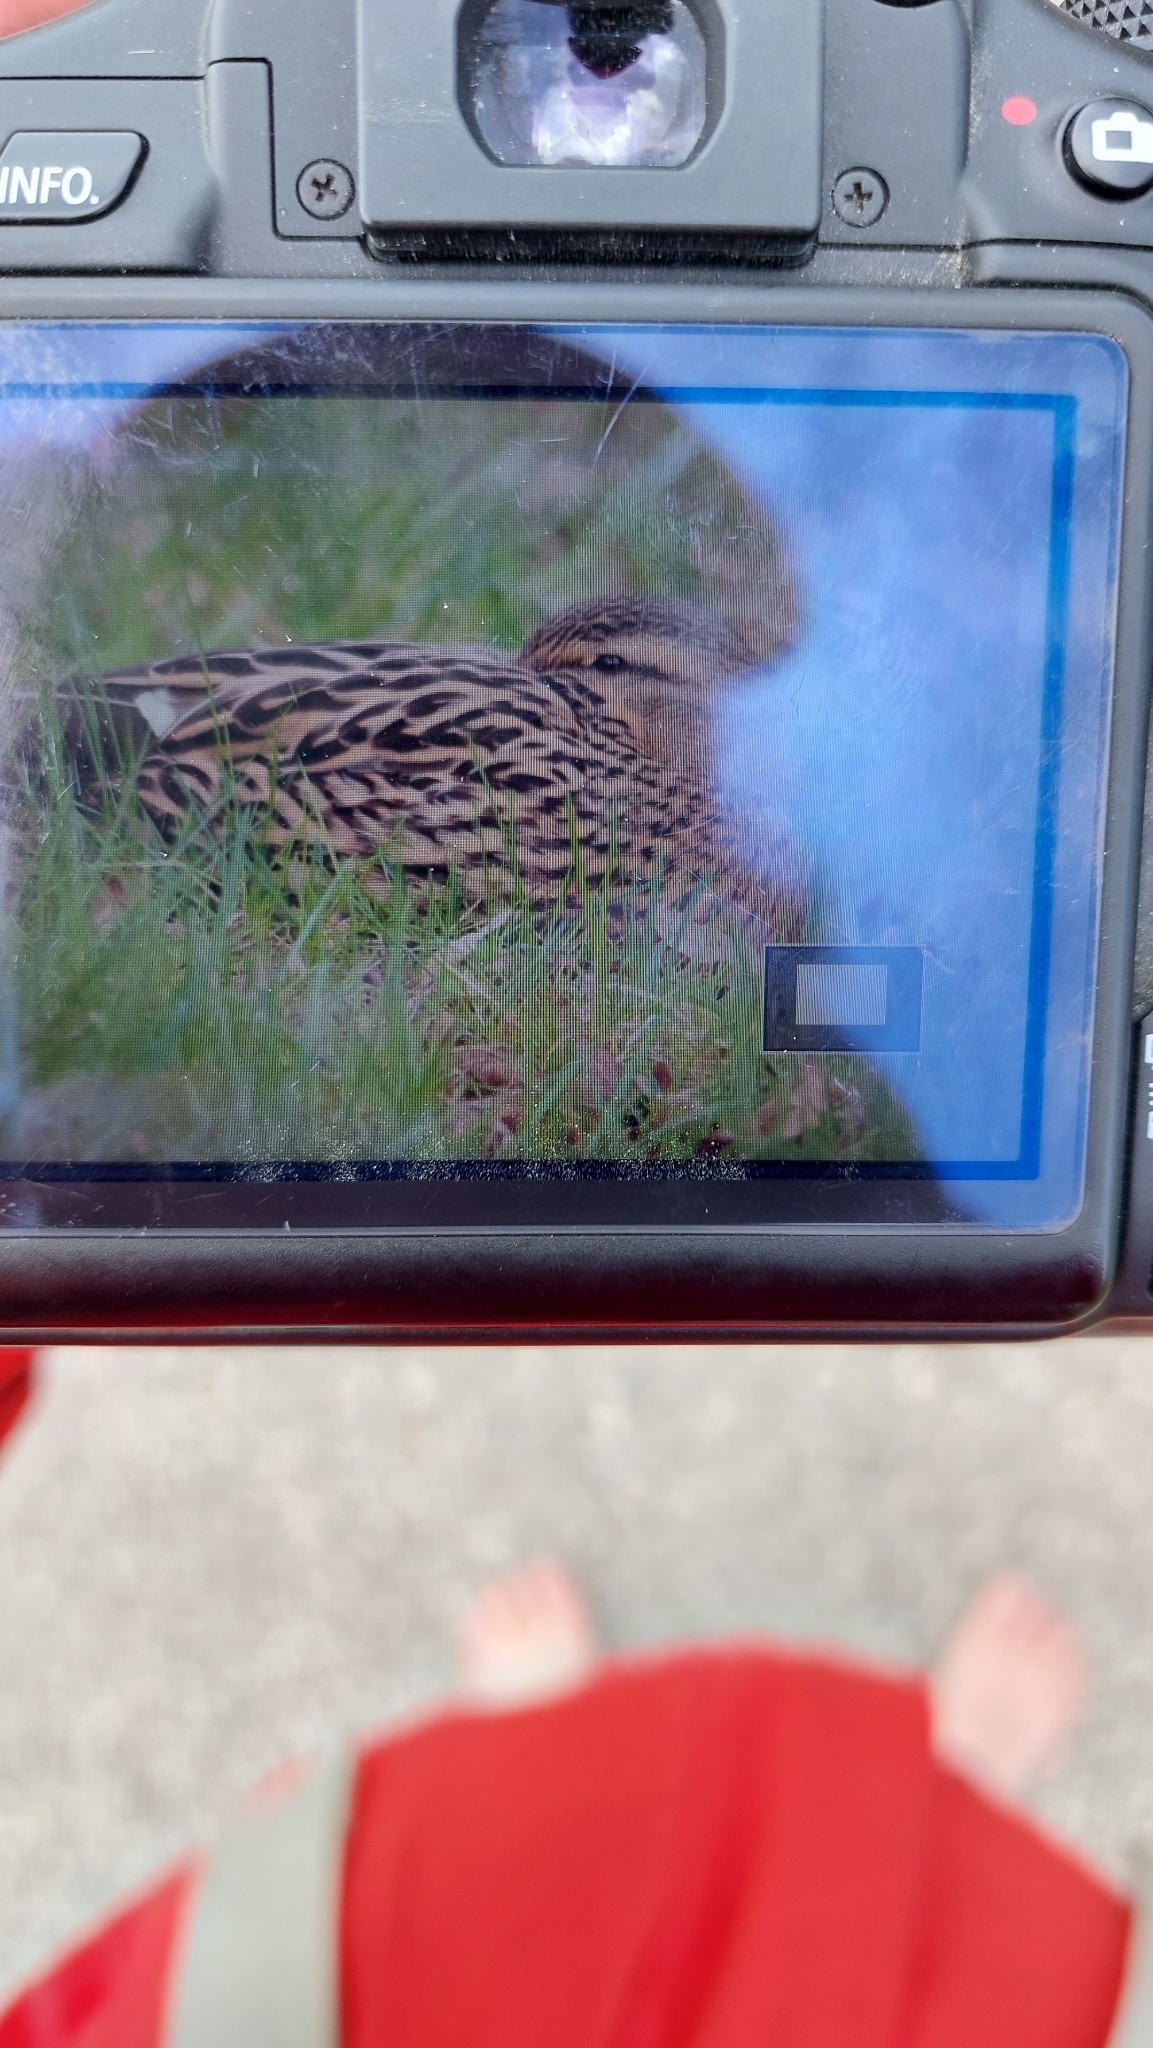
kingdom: Animalia
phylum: Chordata
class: Aves
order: Anseriformes
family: Anatidae
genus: Anas
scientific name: Anas platyrhynchos
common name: Mallard
